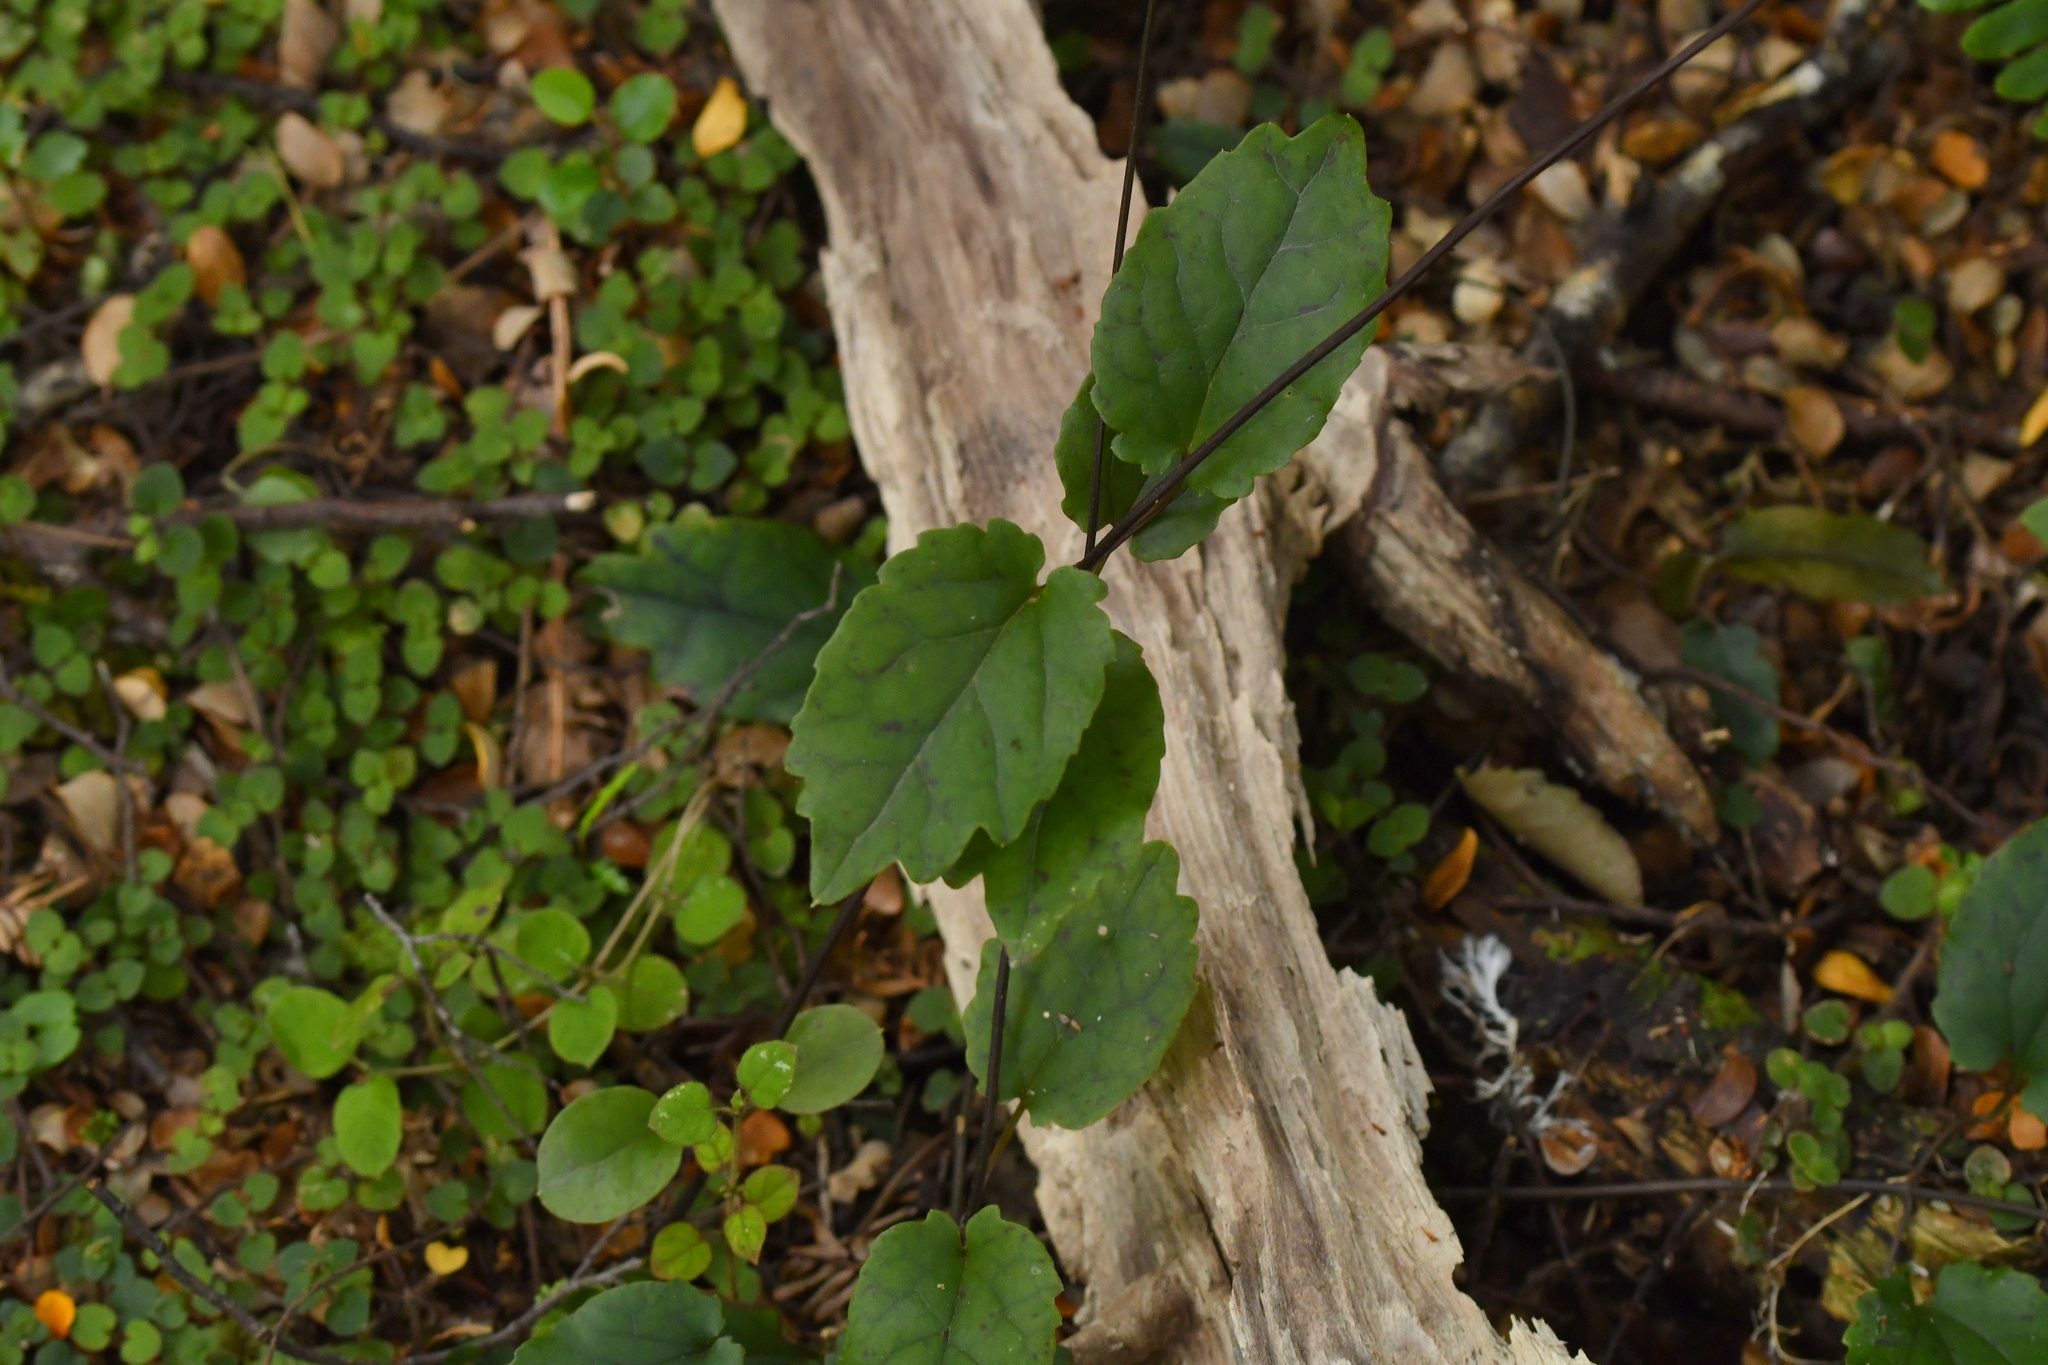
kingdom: Plantae
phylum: Tracheophyta
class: Magnoliopsida
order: Ranunculales
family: Ranunculaceae
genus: Clematis
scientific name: Clematis paniculata
